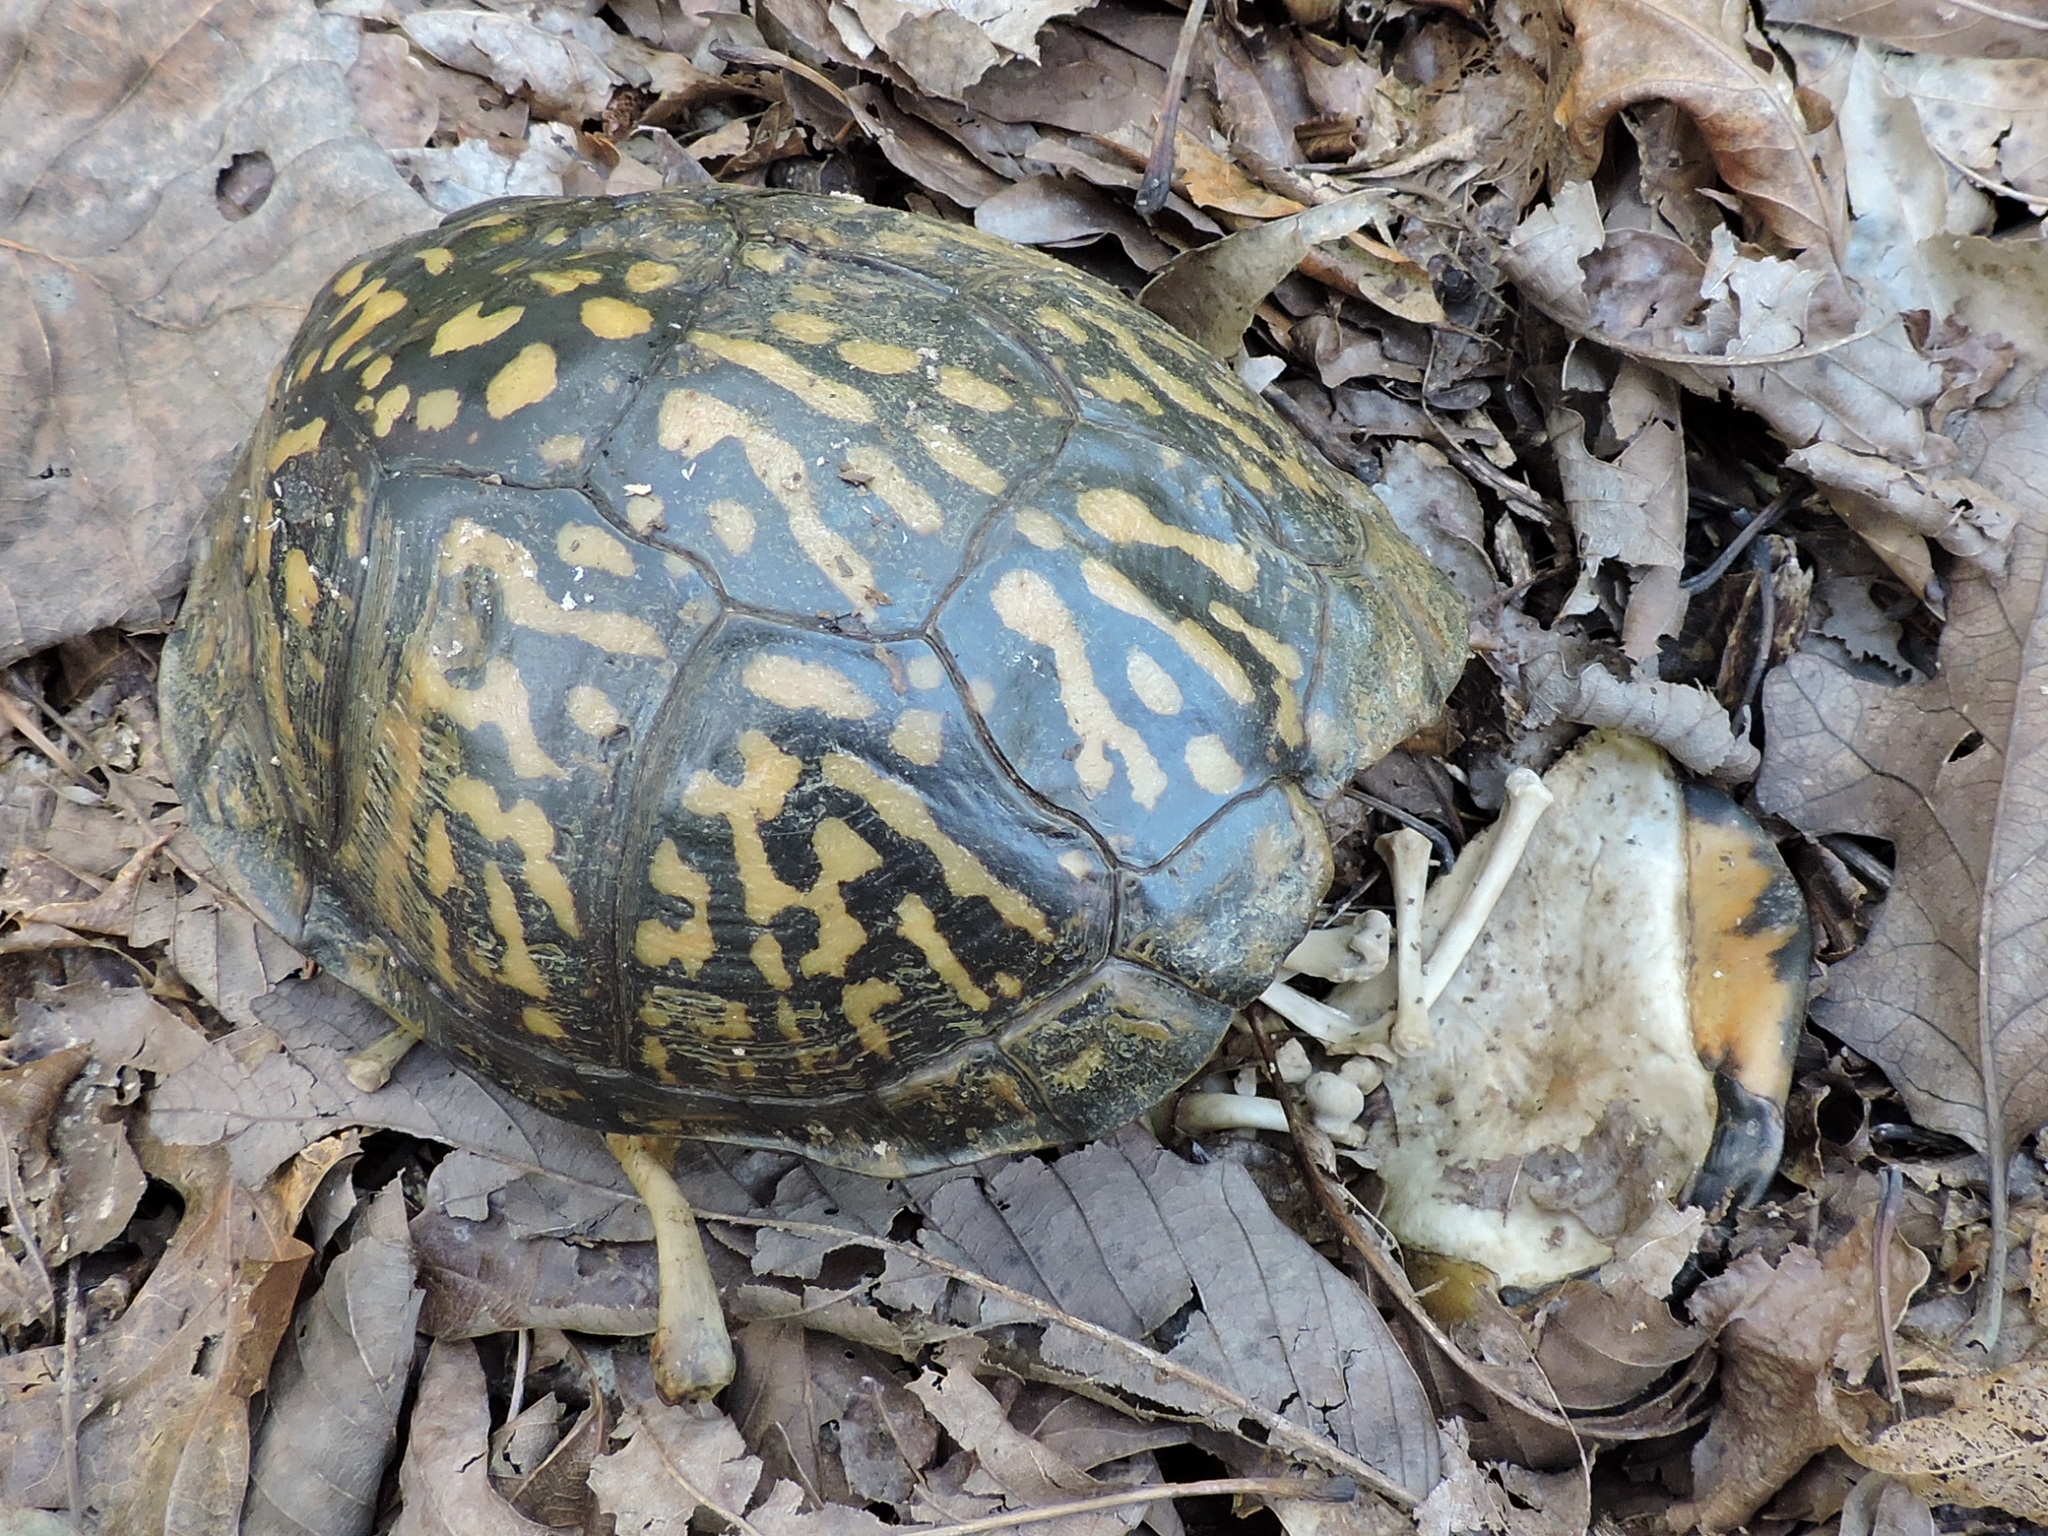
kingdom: Animalia
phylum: Chordata
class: Testudines
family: Emydidae
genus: Terrapene
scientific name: Terrapene carolina
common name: Common box turtle
